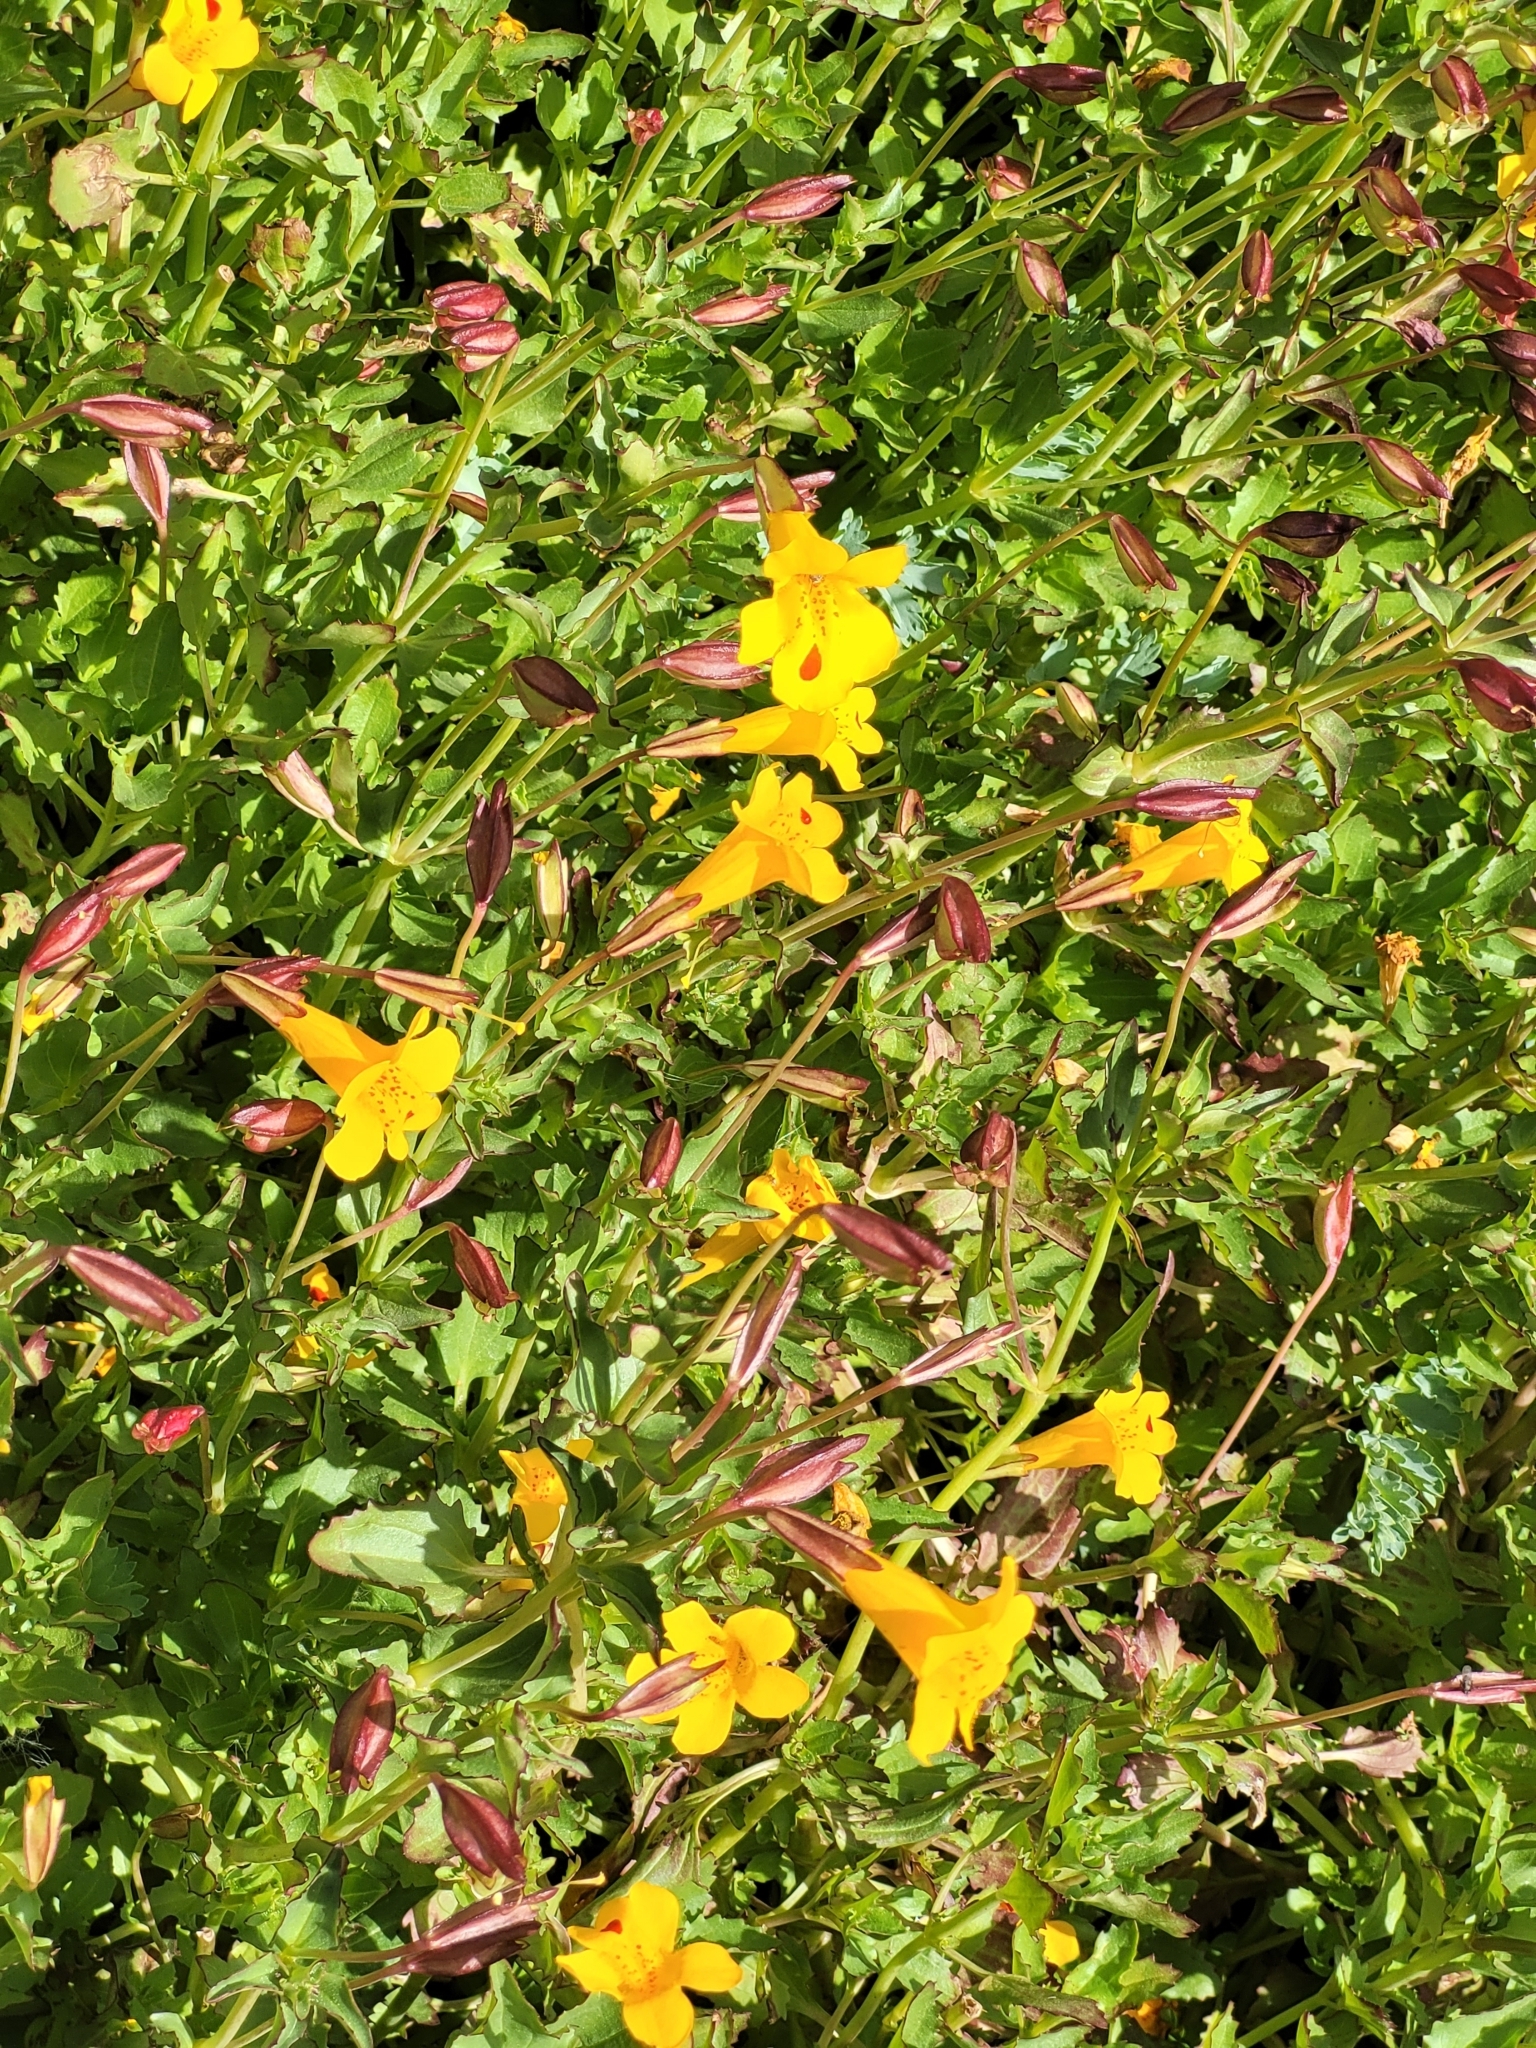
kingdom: Plantae
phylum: Tracheophyta
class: Magnoliopsida
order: Lamiales
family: Phrymaceae
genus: Erythranthe
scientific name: Erythranthe lutea
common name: Yellow monkey-flower
